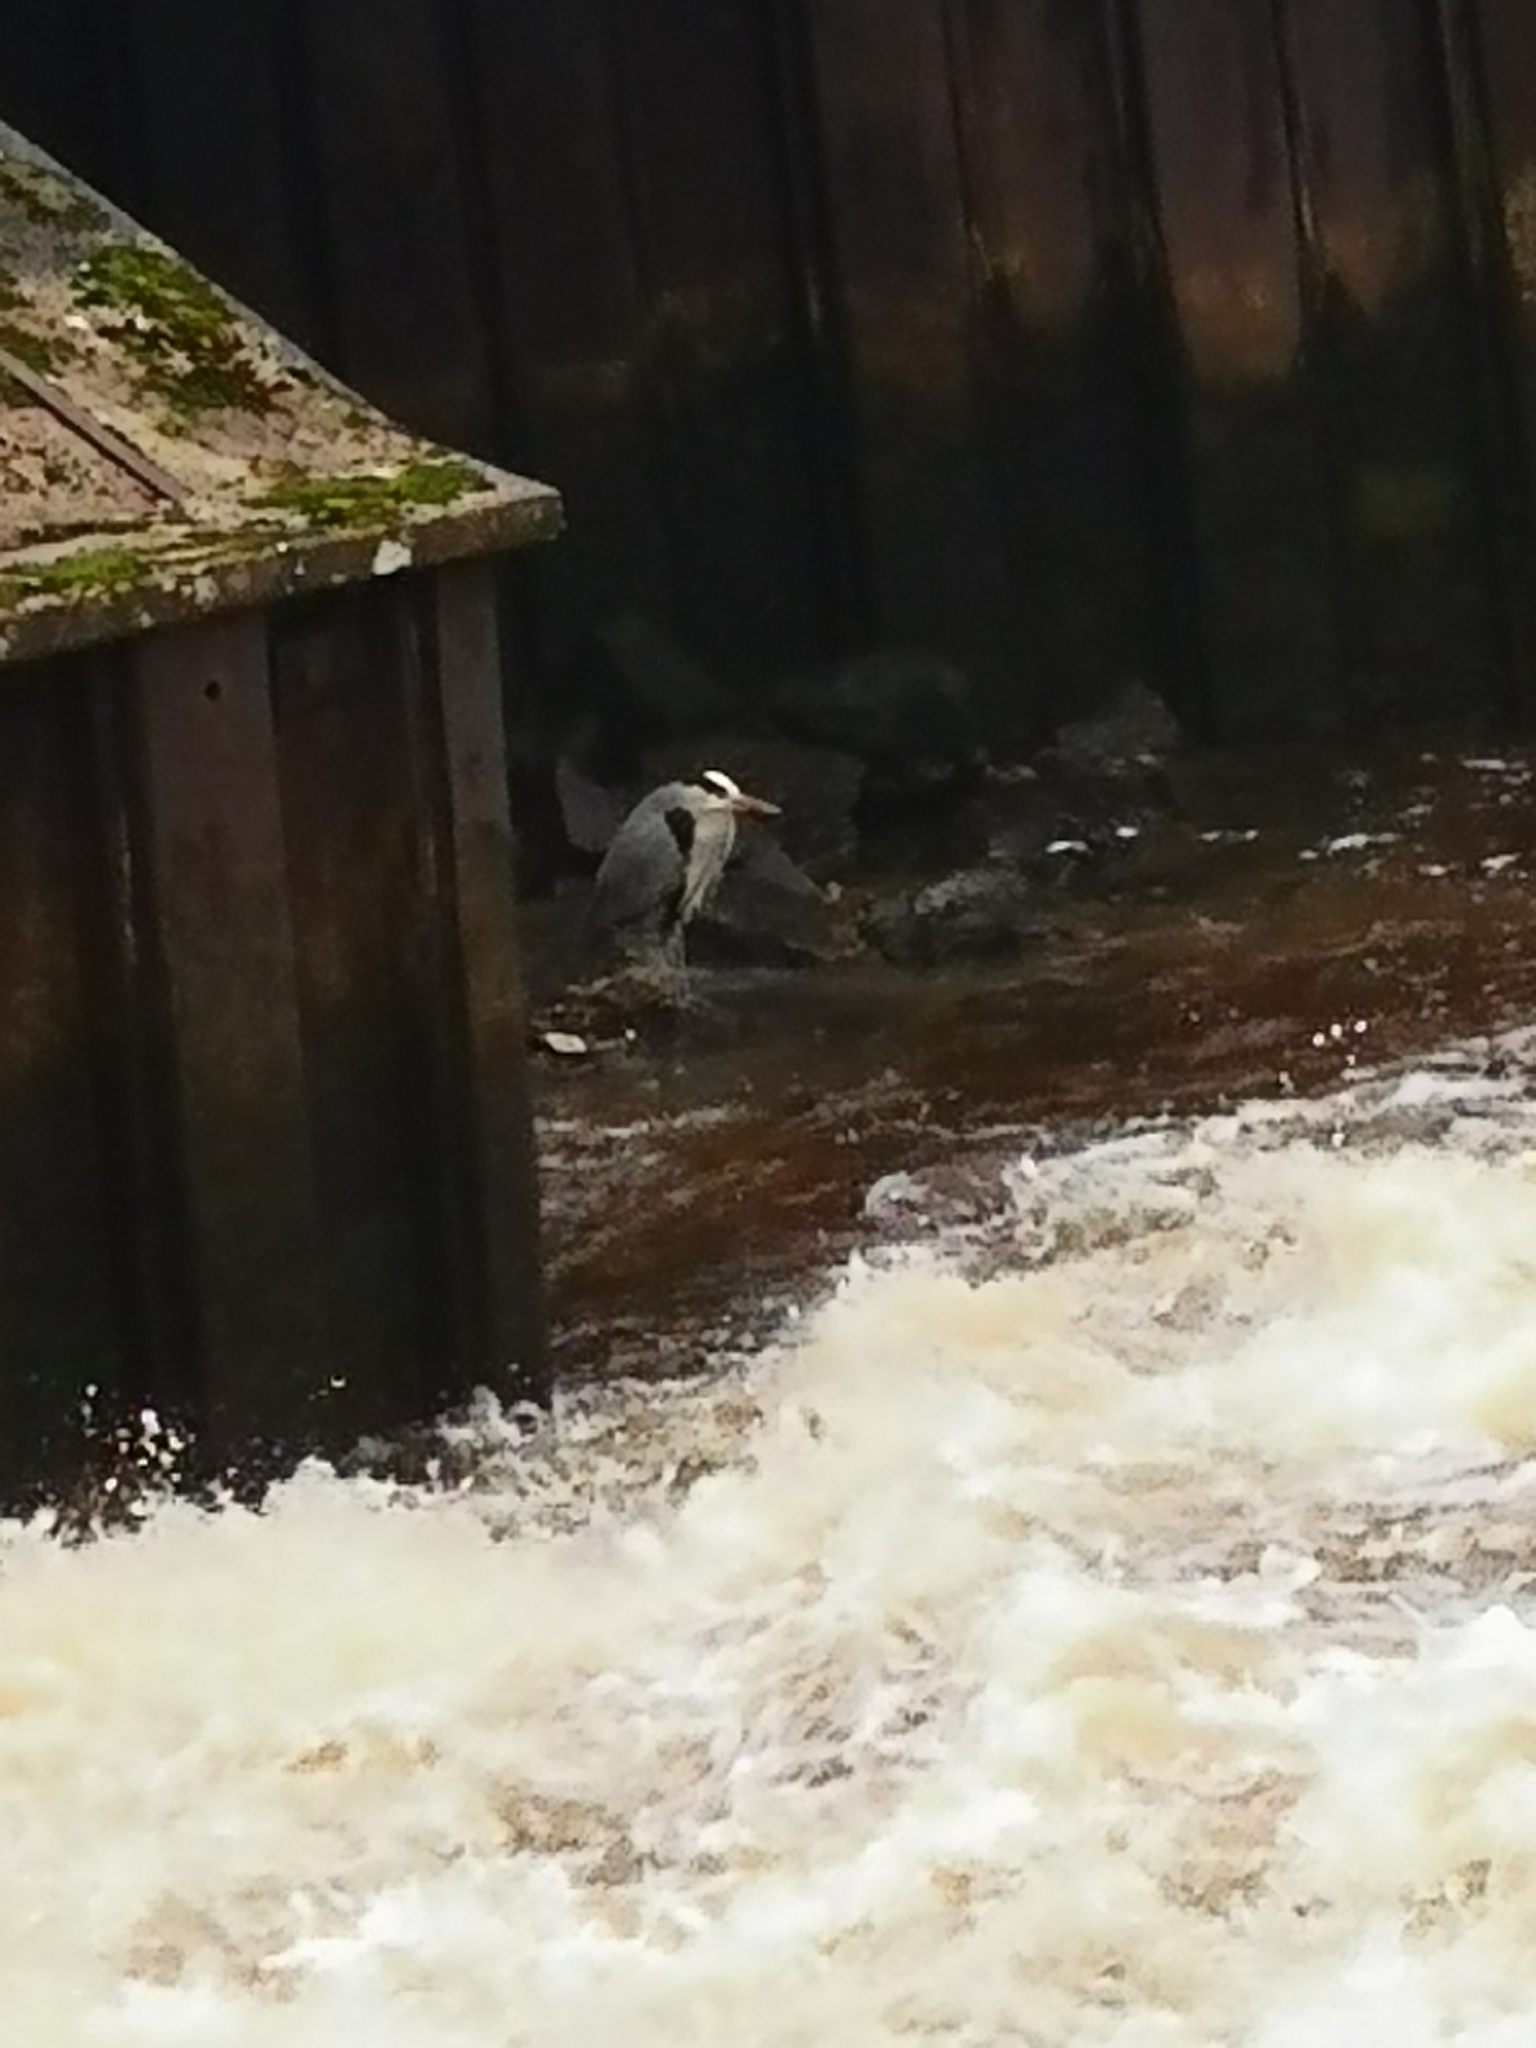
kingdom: Animalia
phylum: Chordata
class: Aves
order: Pelecaniformes
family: Ardeidae
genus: Ardea
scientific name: Ardea cinerea
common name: Grey heron
